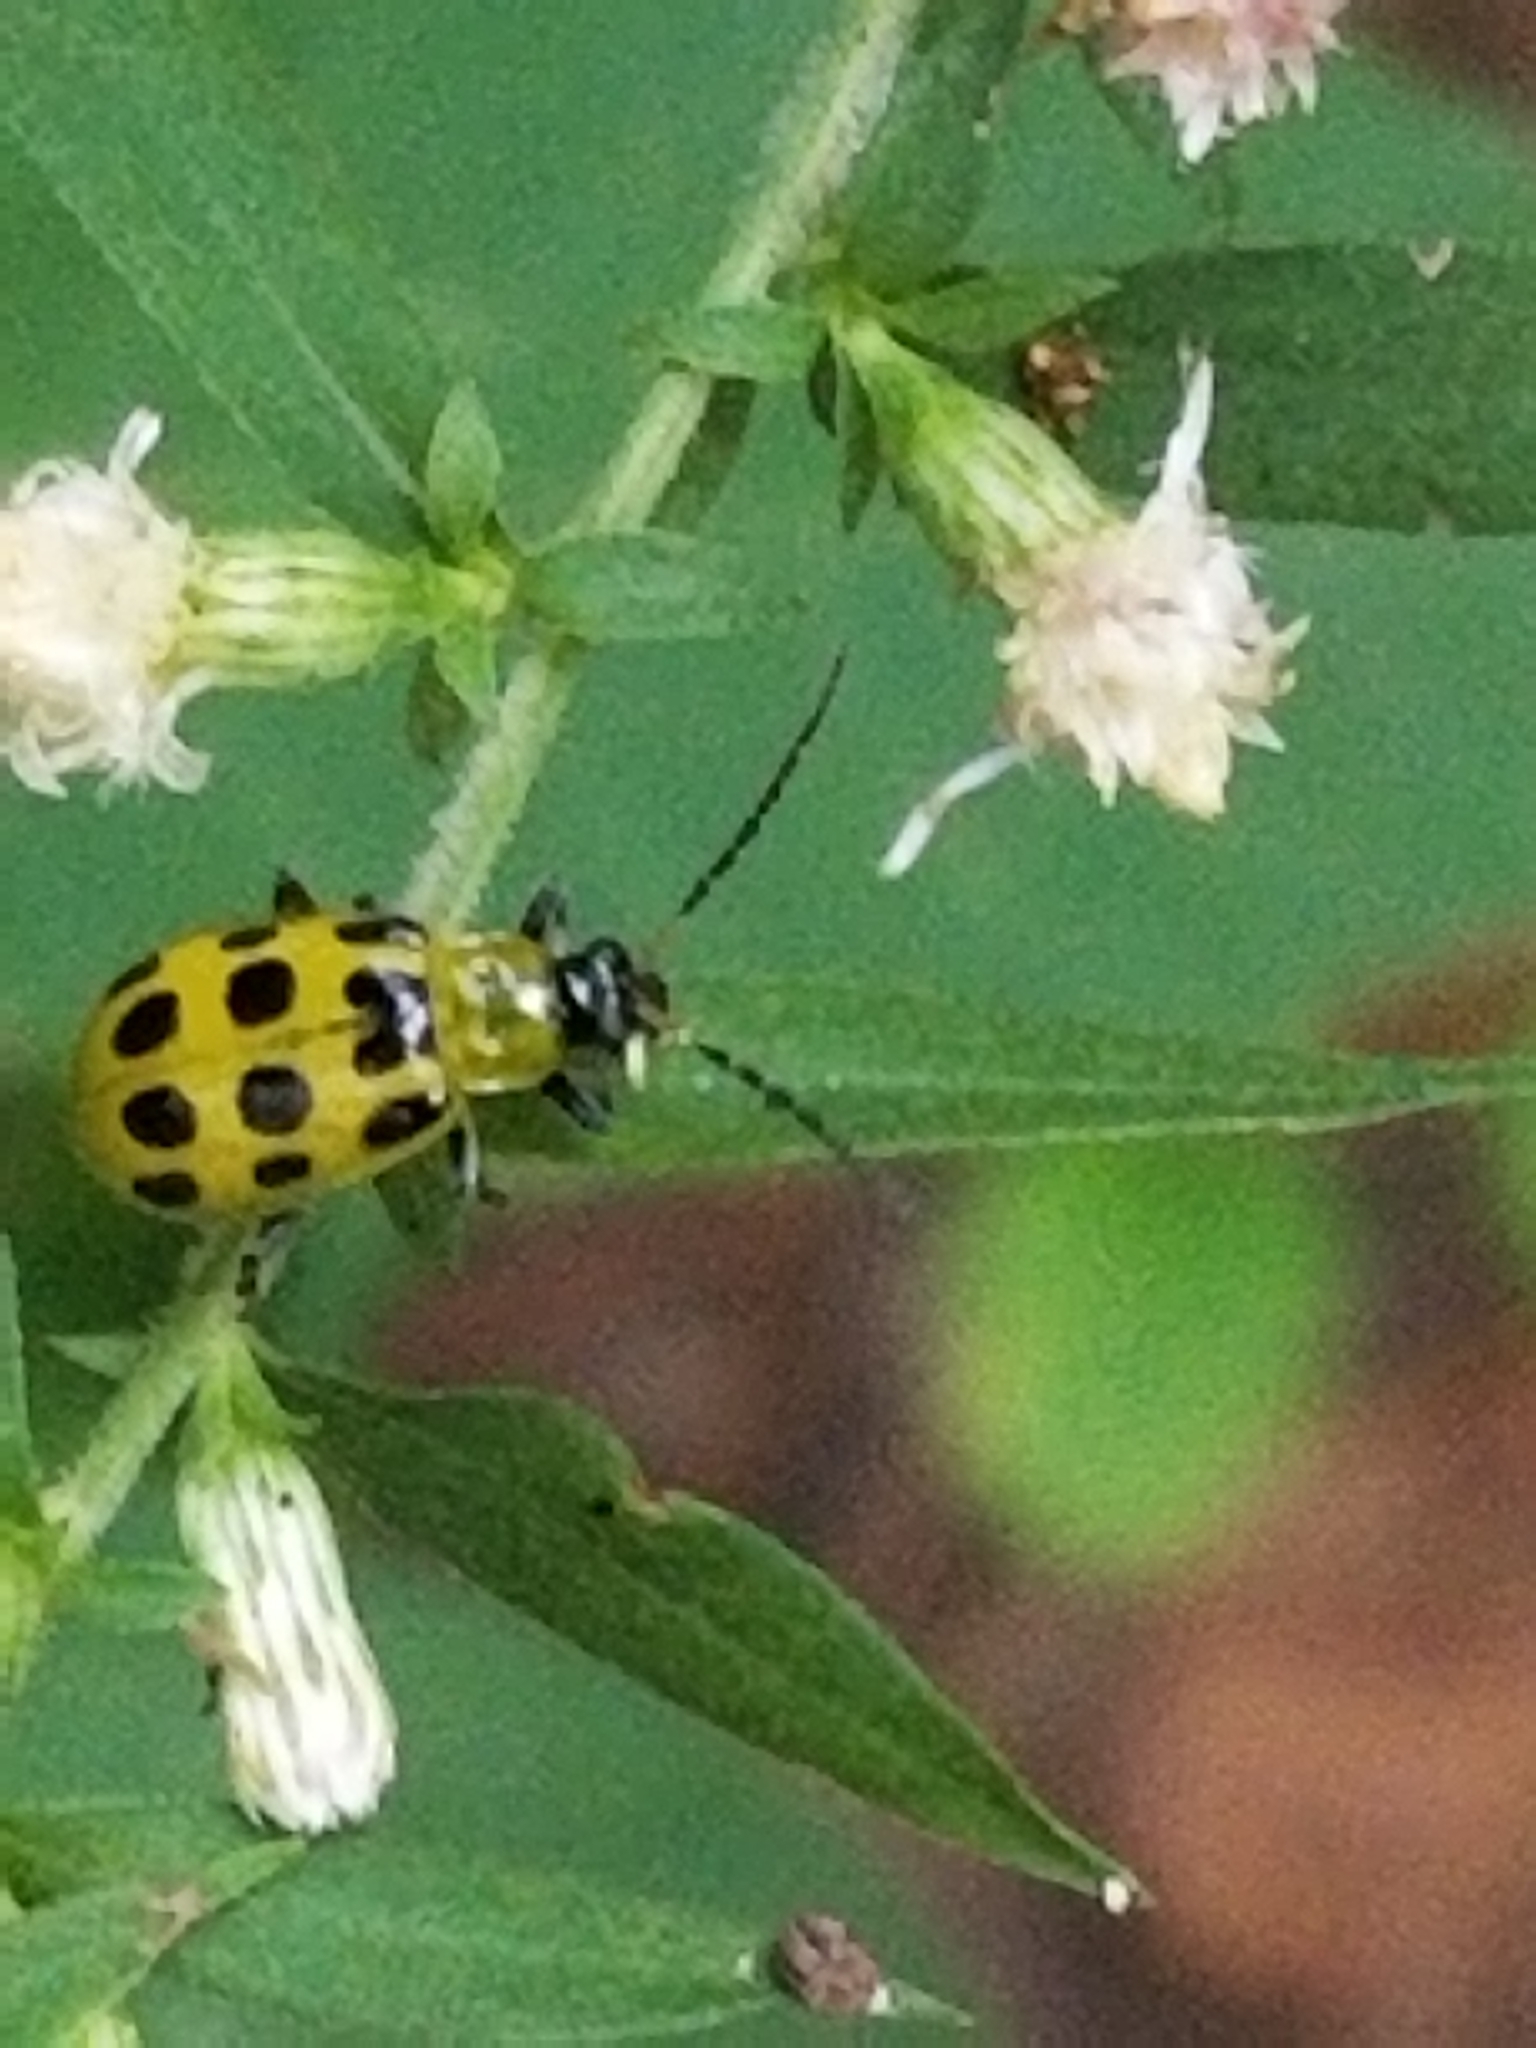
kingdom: Animalia
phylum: Arthropoda
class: Insecta
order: Coleoptera
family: Chrysomelidae
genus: Diabrotica
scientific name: Diabrotica undecimpunctata
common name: Spotted cucumber beetle
